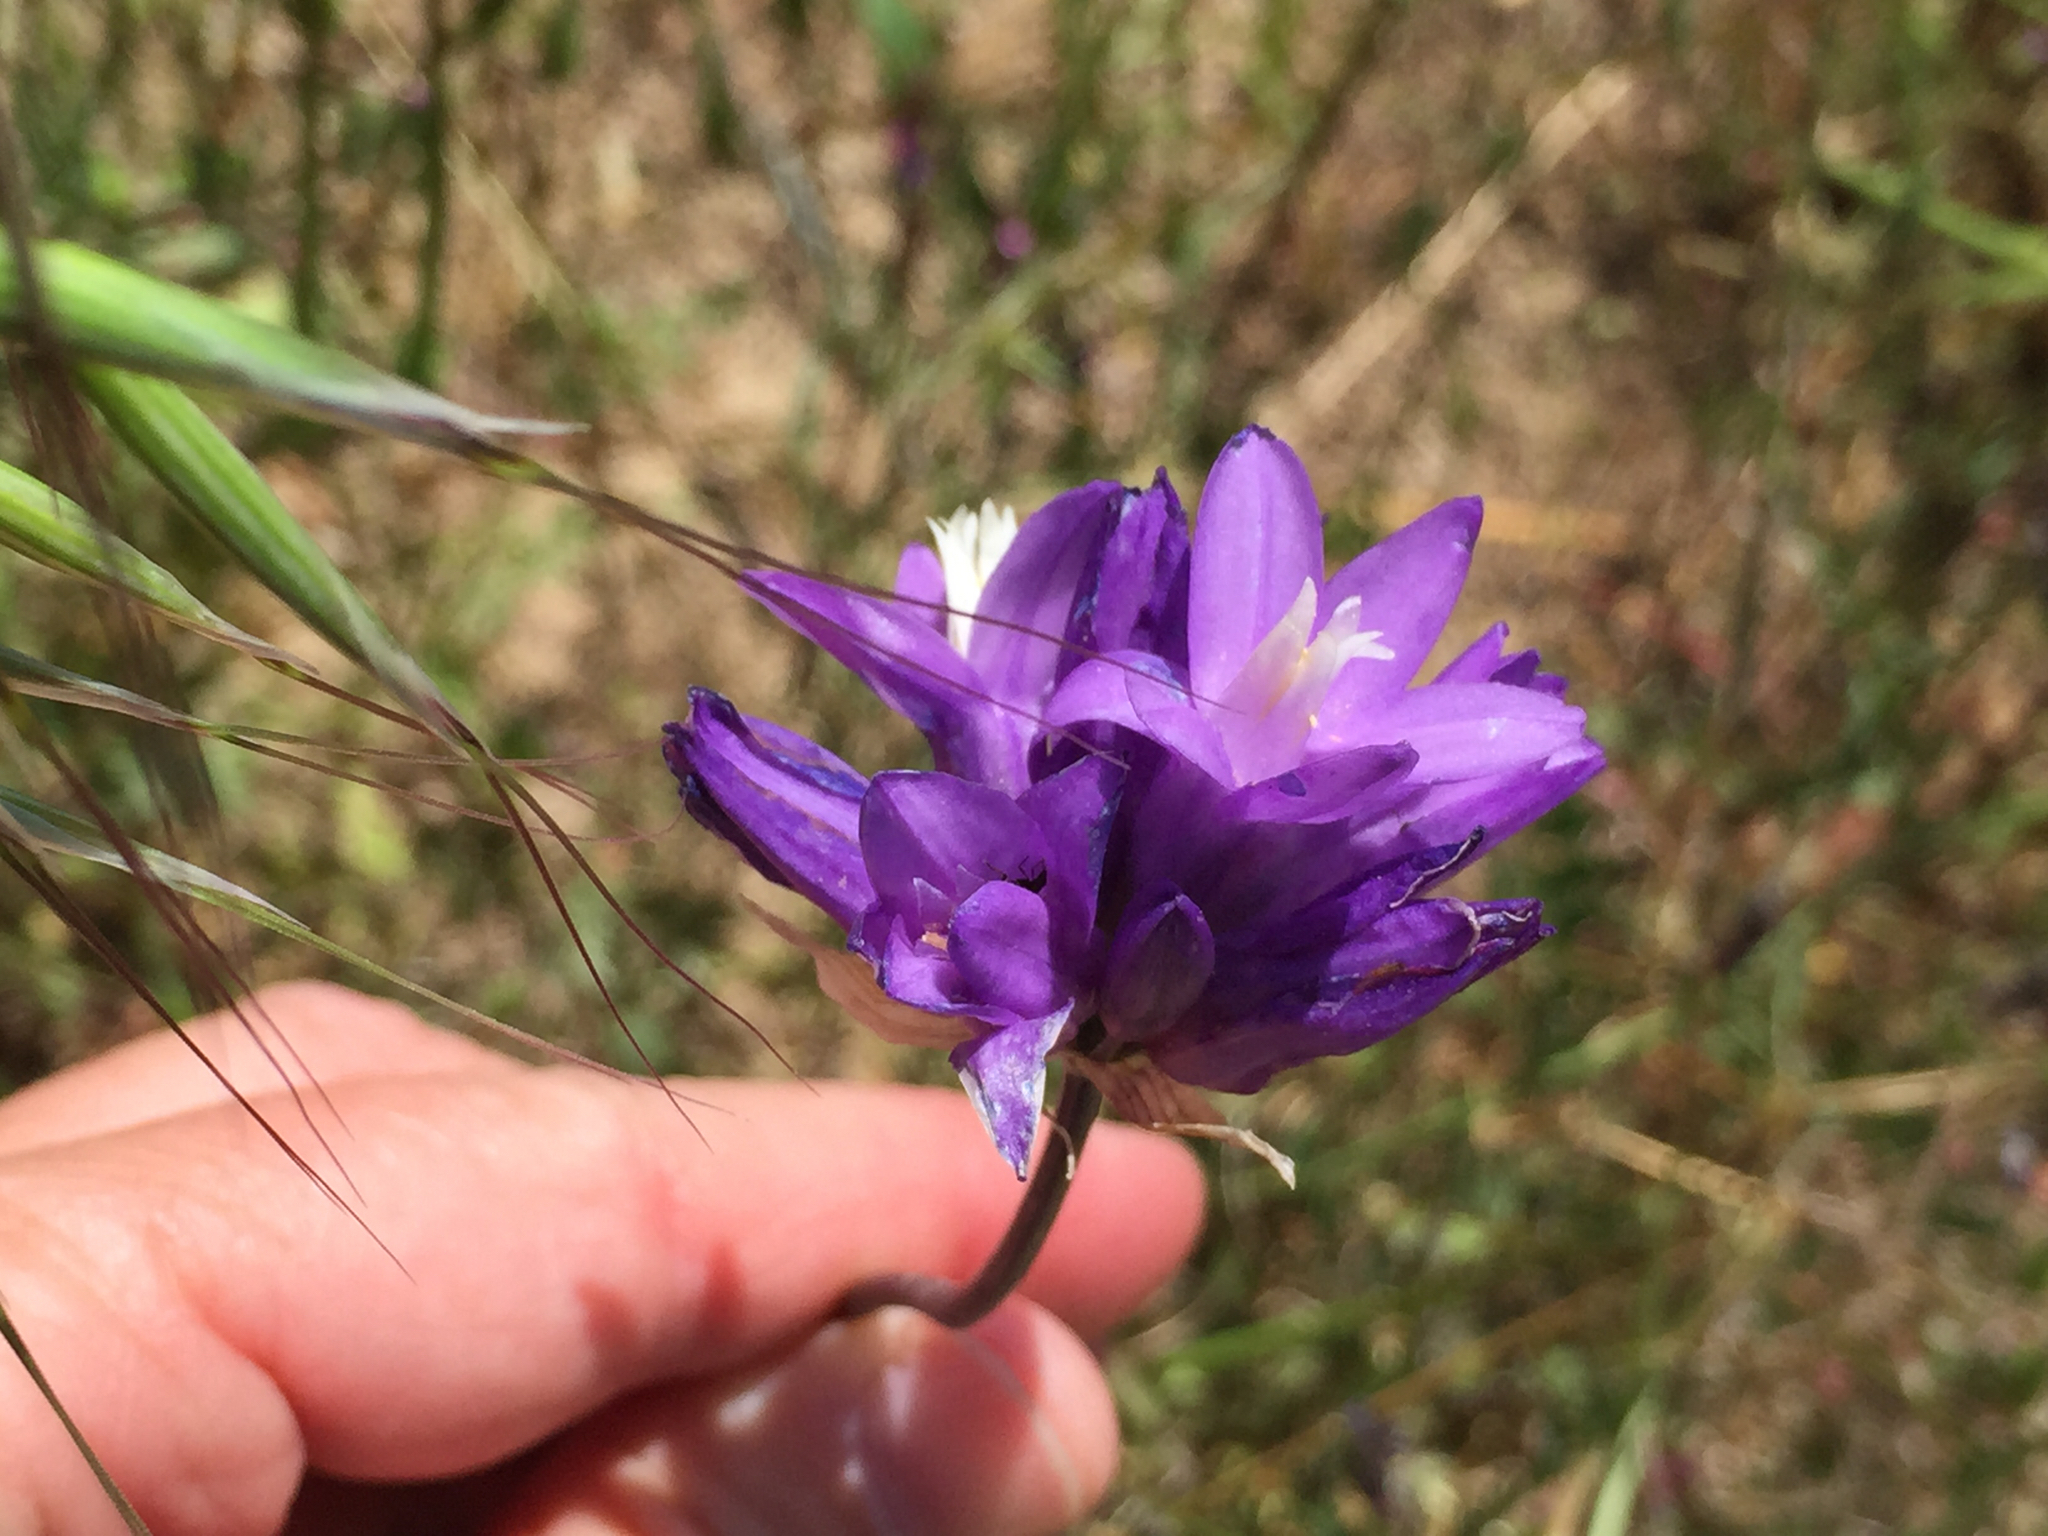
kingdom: Plantae
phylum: Tracheophyta
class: Liliopsida
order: Asparagales
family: Asparagaceae
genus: Dipterostemon
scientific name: Dipterostemon capitatus
